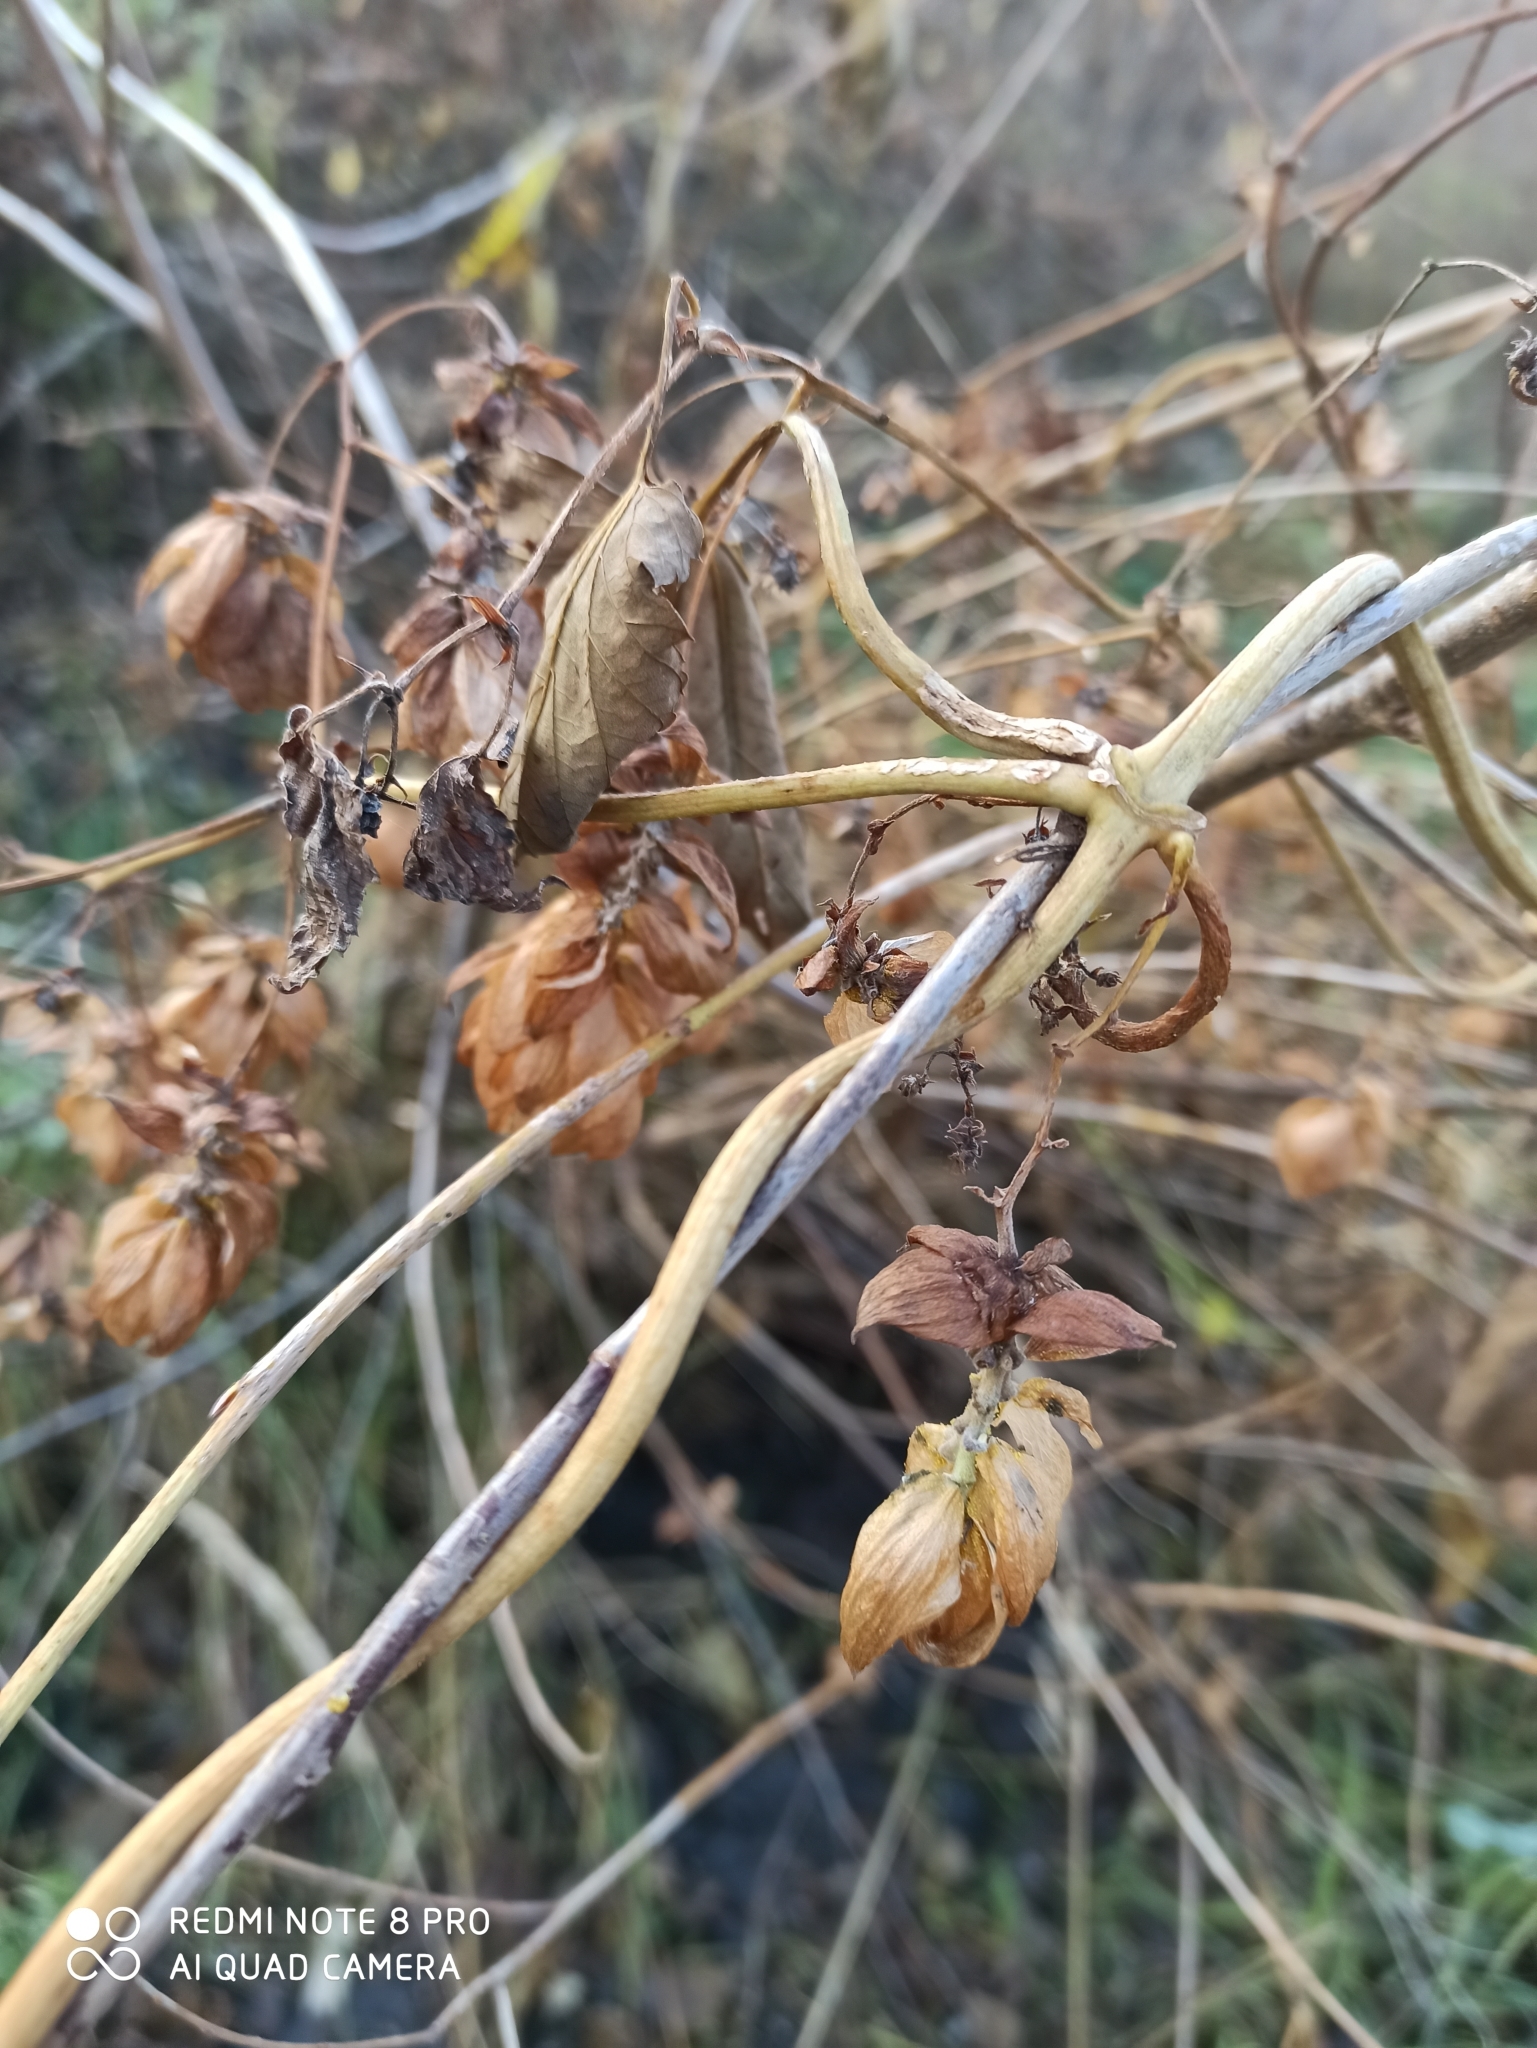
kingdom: Plantae
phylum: Tracheophyta
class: Magnoliopsida
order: Rosales
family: Cannabaceae
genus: Humulus
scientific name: Humulus lupulus
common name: Hop
